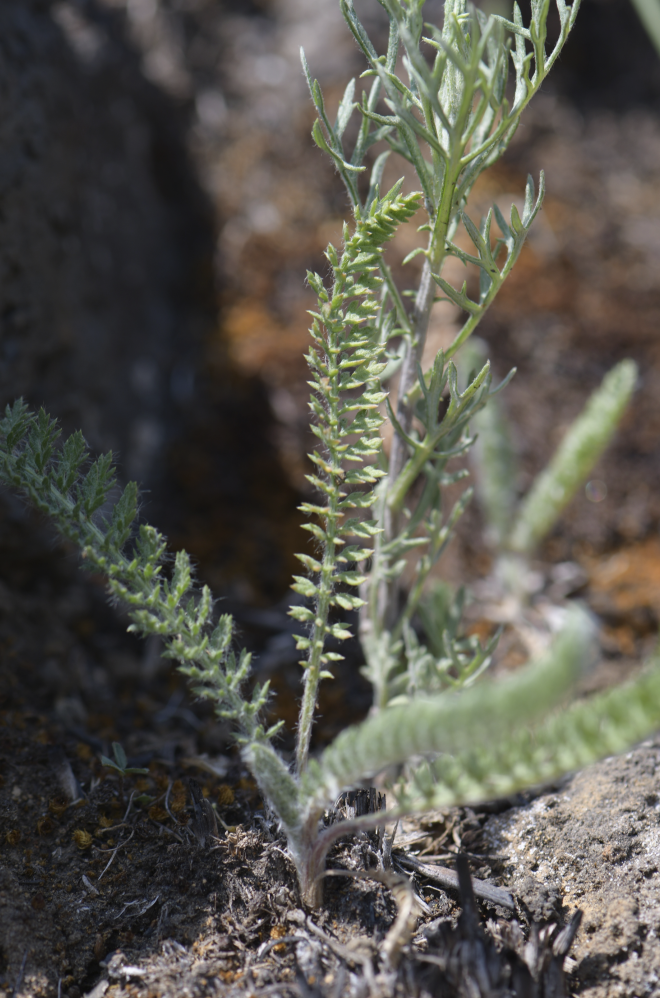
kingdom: Plantae
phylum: Tracheophyta
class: Magnoliopsida
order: Asterales
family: Asteraceae
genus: Achillea
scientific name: Achillea millefolium
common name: Yarrow
